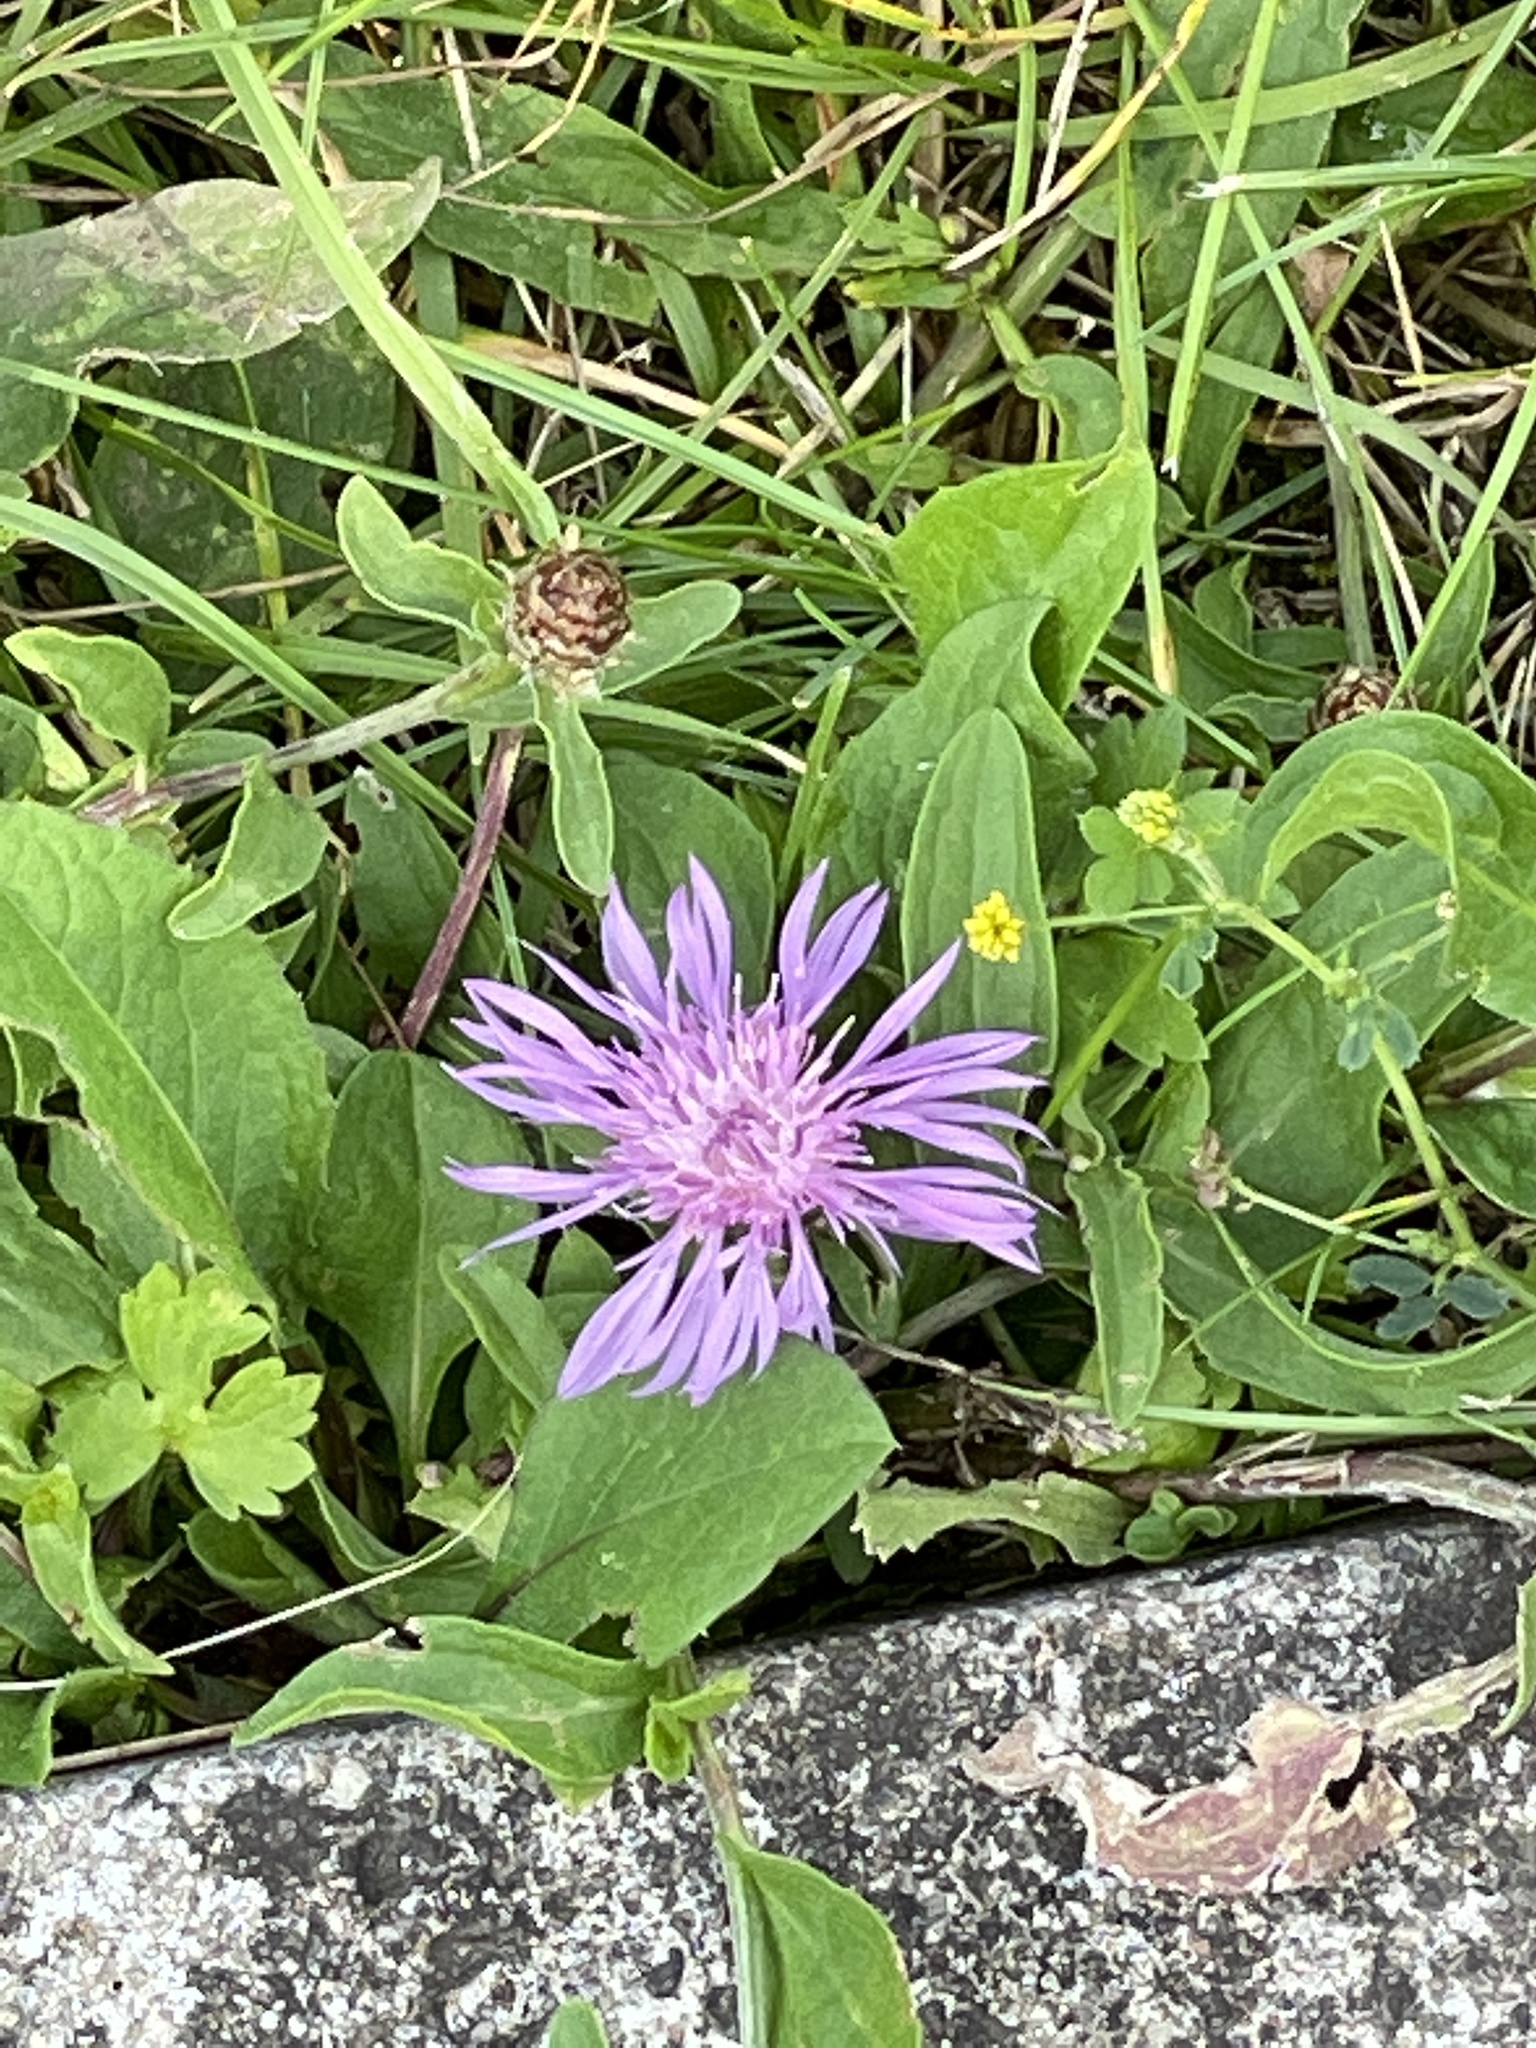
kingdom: Plantae
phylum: Tracheophyta
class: Magnoliopsida
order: Asterales
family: Asteraceae
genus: Centaurea
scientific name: Centaurea jacea
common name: Brown knapweed
